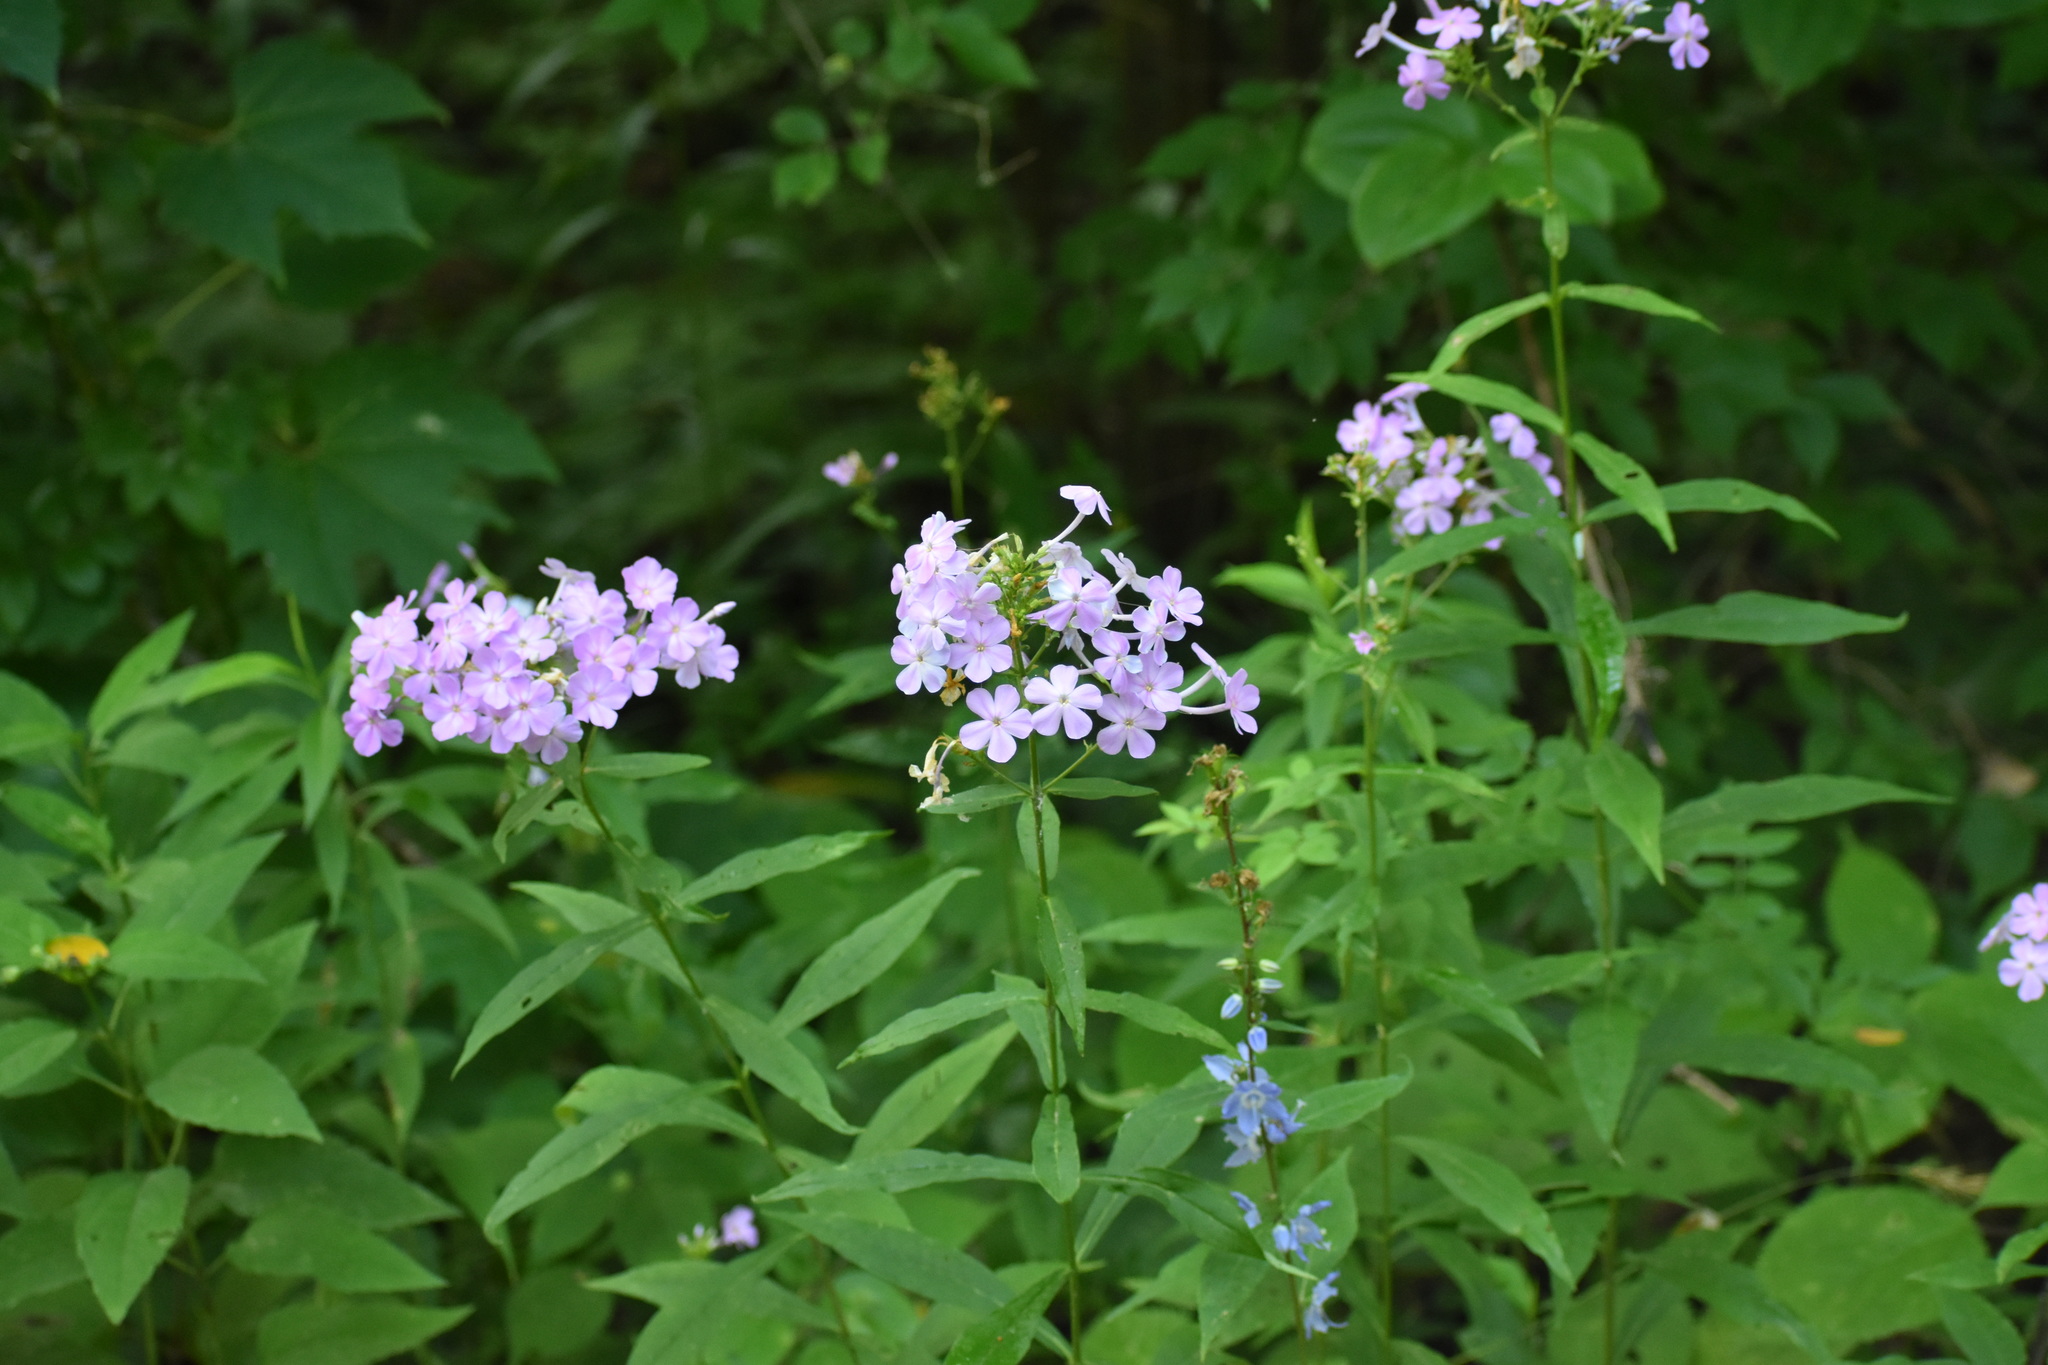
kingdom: Plantae
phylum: Tracheophyta
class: Magnoliopsida
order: Ericales
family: Polemoniaceae
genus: Phlox
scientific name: Phlox paniculata
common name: Fall phlox
